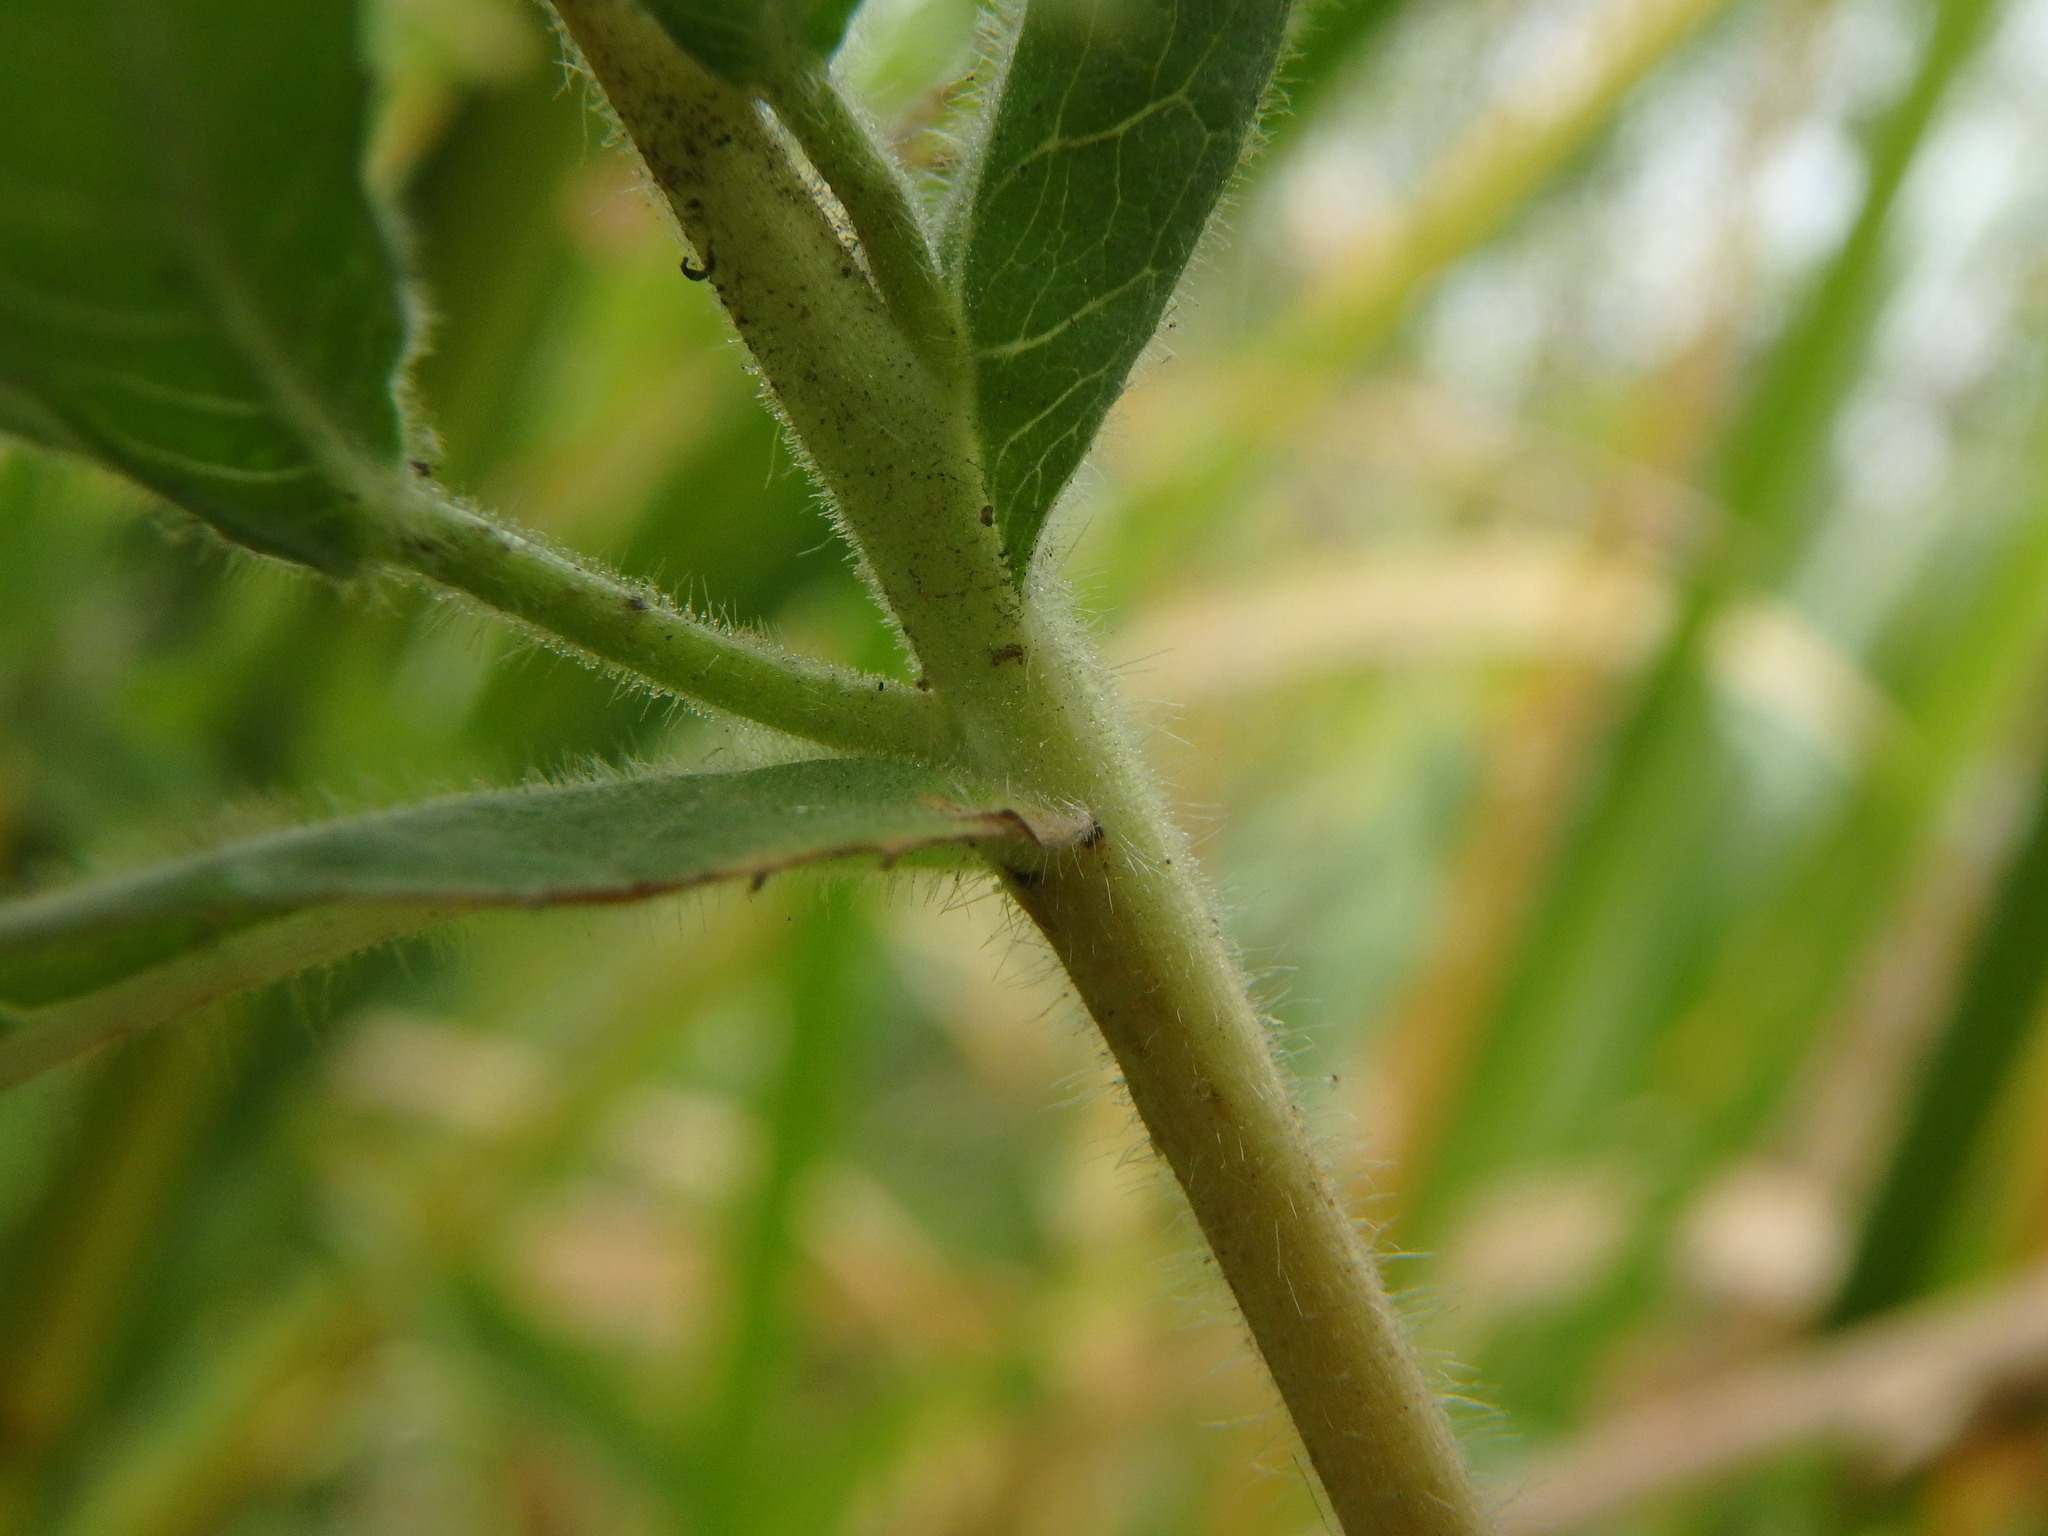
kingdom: Plantae
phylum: Tracheophyta
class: Magnoliopsida
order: Myrtales
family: Onagraceae
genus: Epilobium
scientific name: Epilobium hirsutum
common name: Great willowherb
